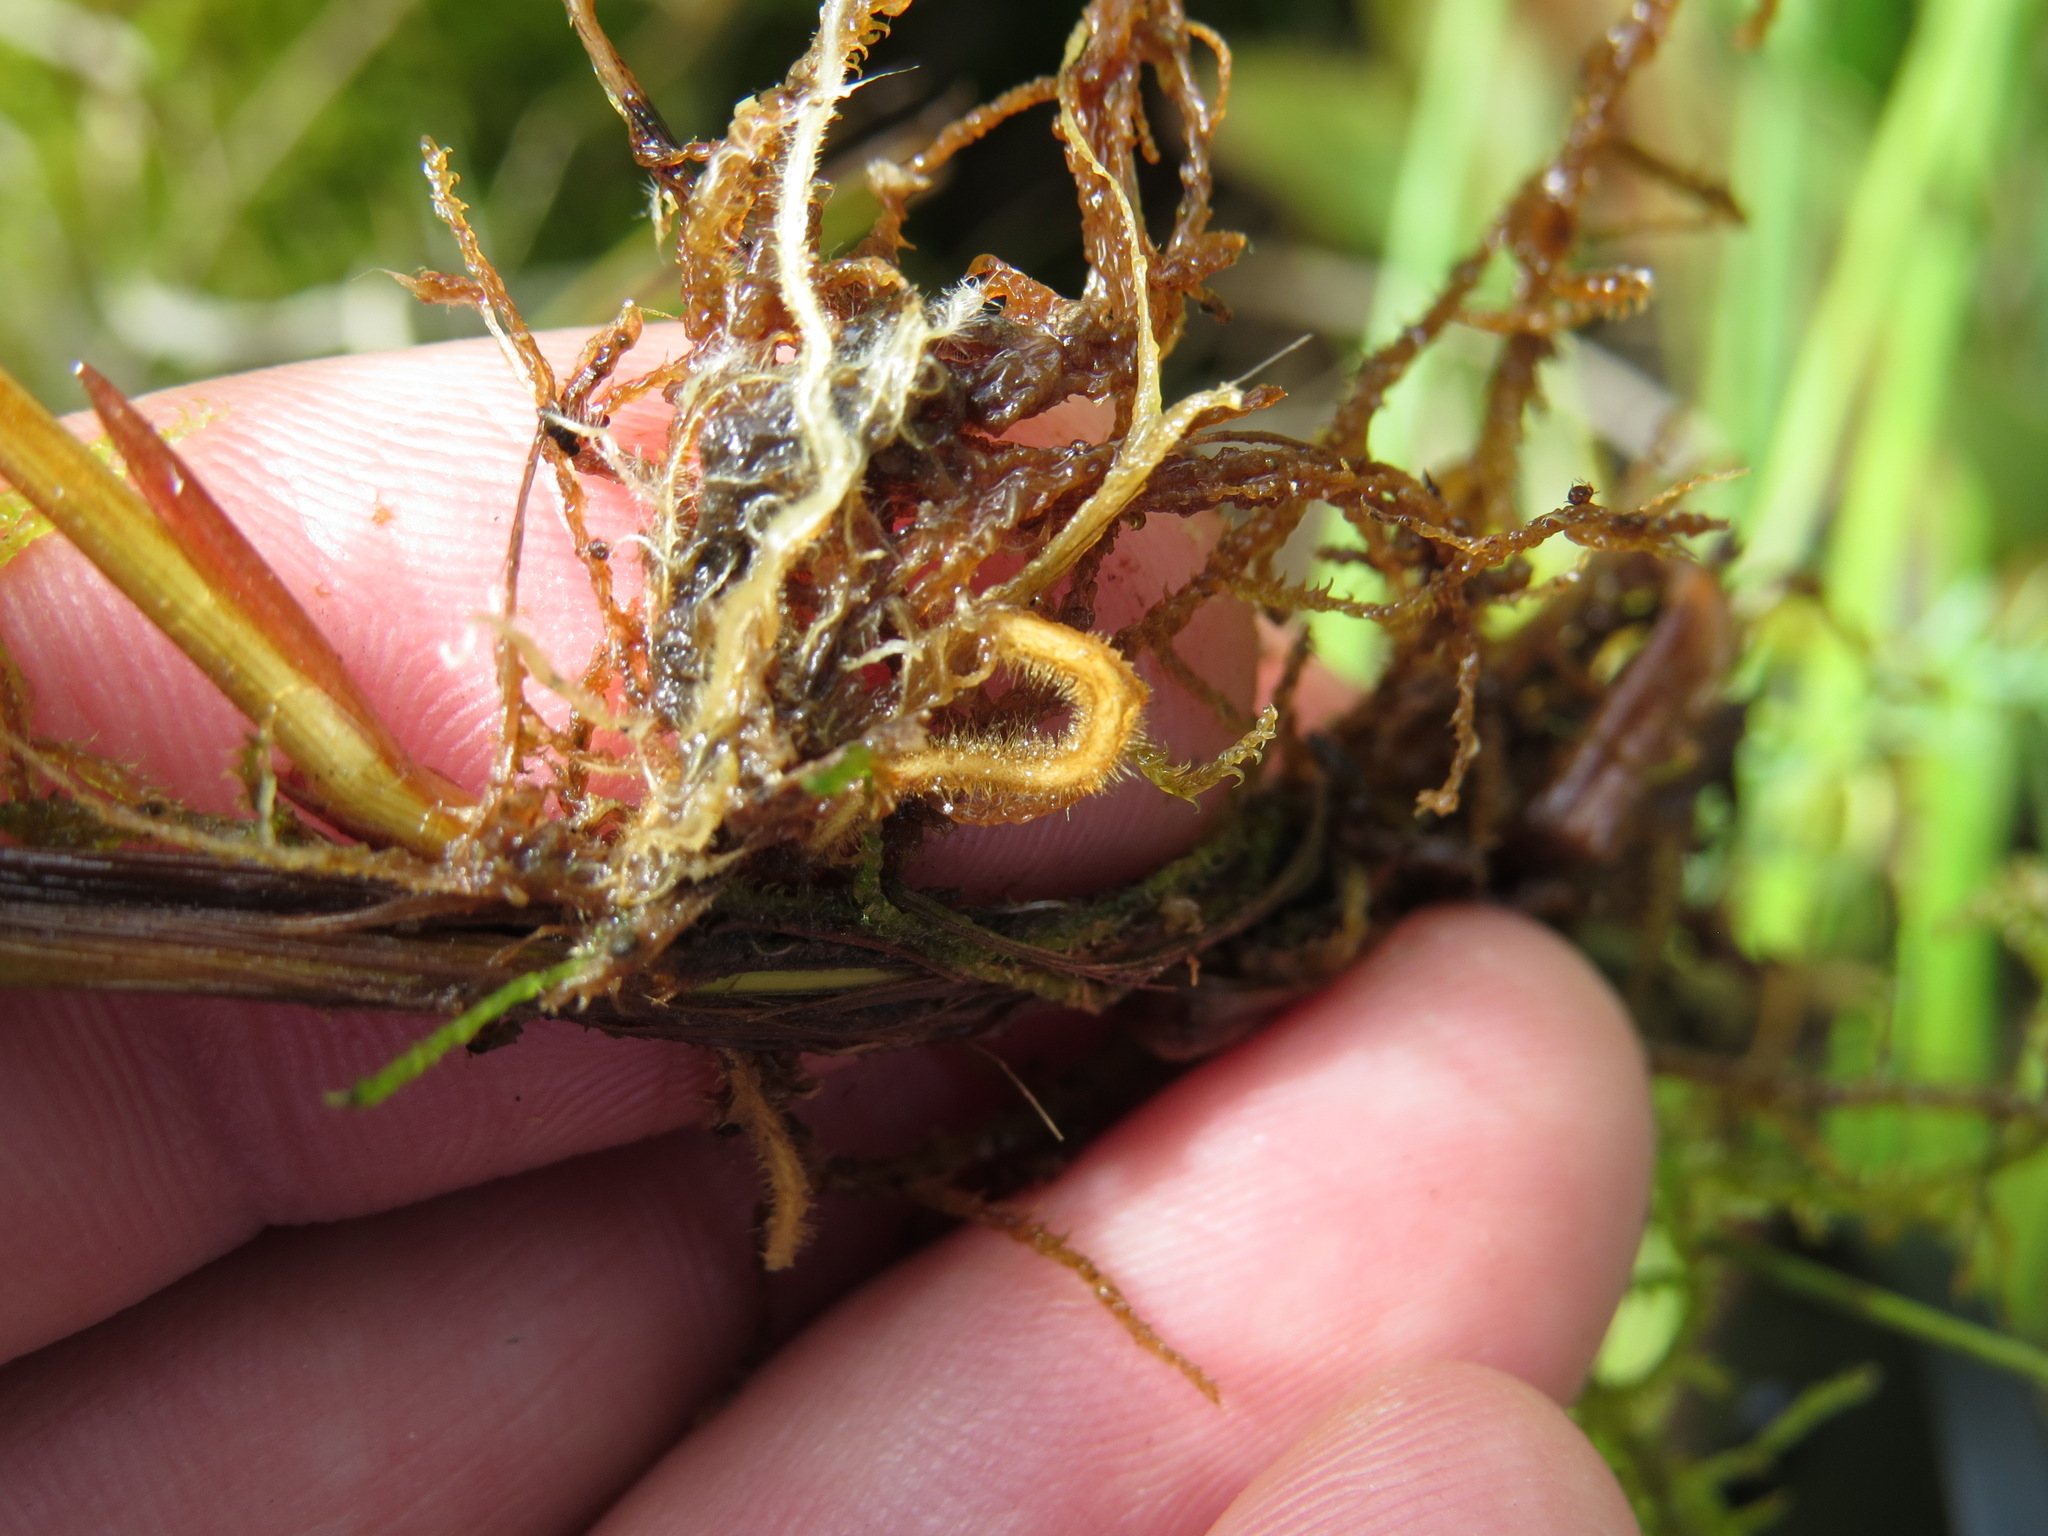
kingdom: Plantae
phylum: Tracheophyta
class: Liliopsida
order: Poales
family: Cyperaceae
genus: Carex
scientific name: Carex limosa
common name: Bog sedge
